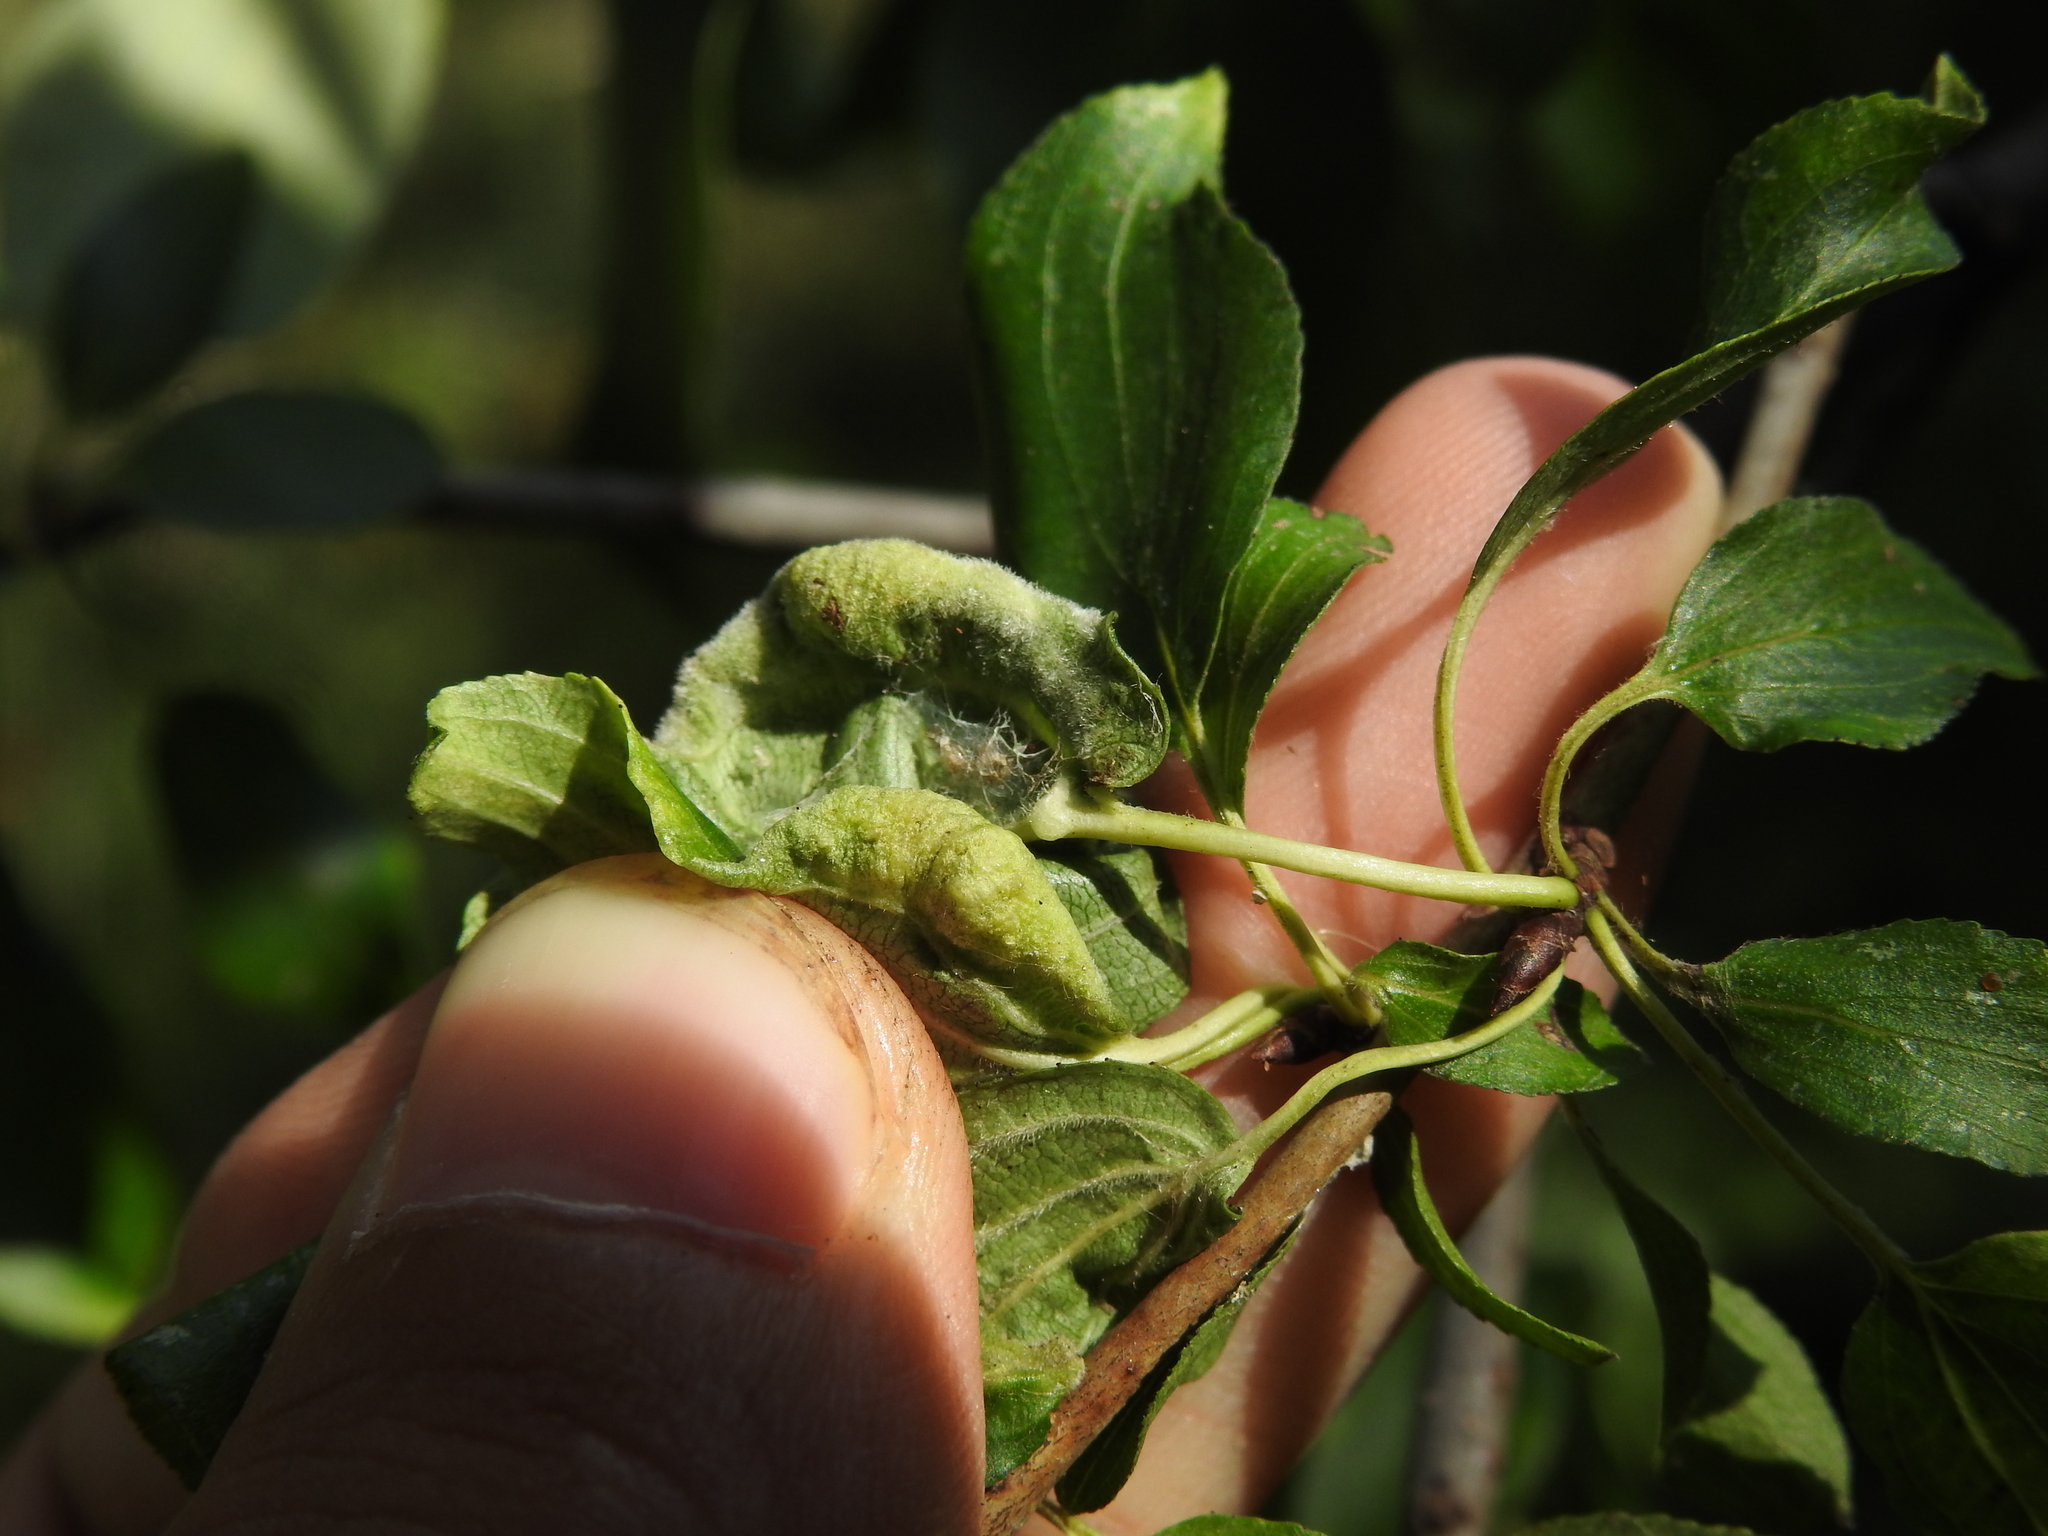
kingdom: Animalia
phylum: Arthropoda
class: Insecta
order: Hemiptera
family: Triozidae
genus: Trichochermes
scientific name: Trichochermes walkeri
